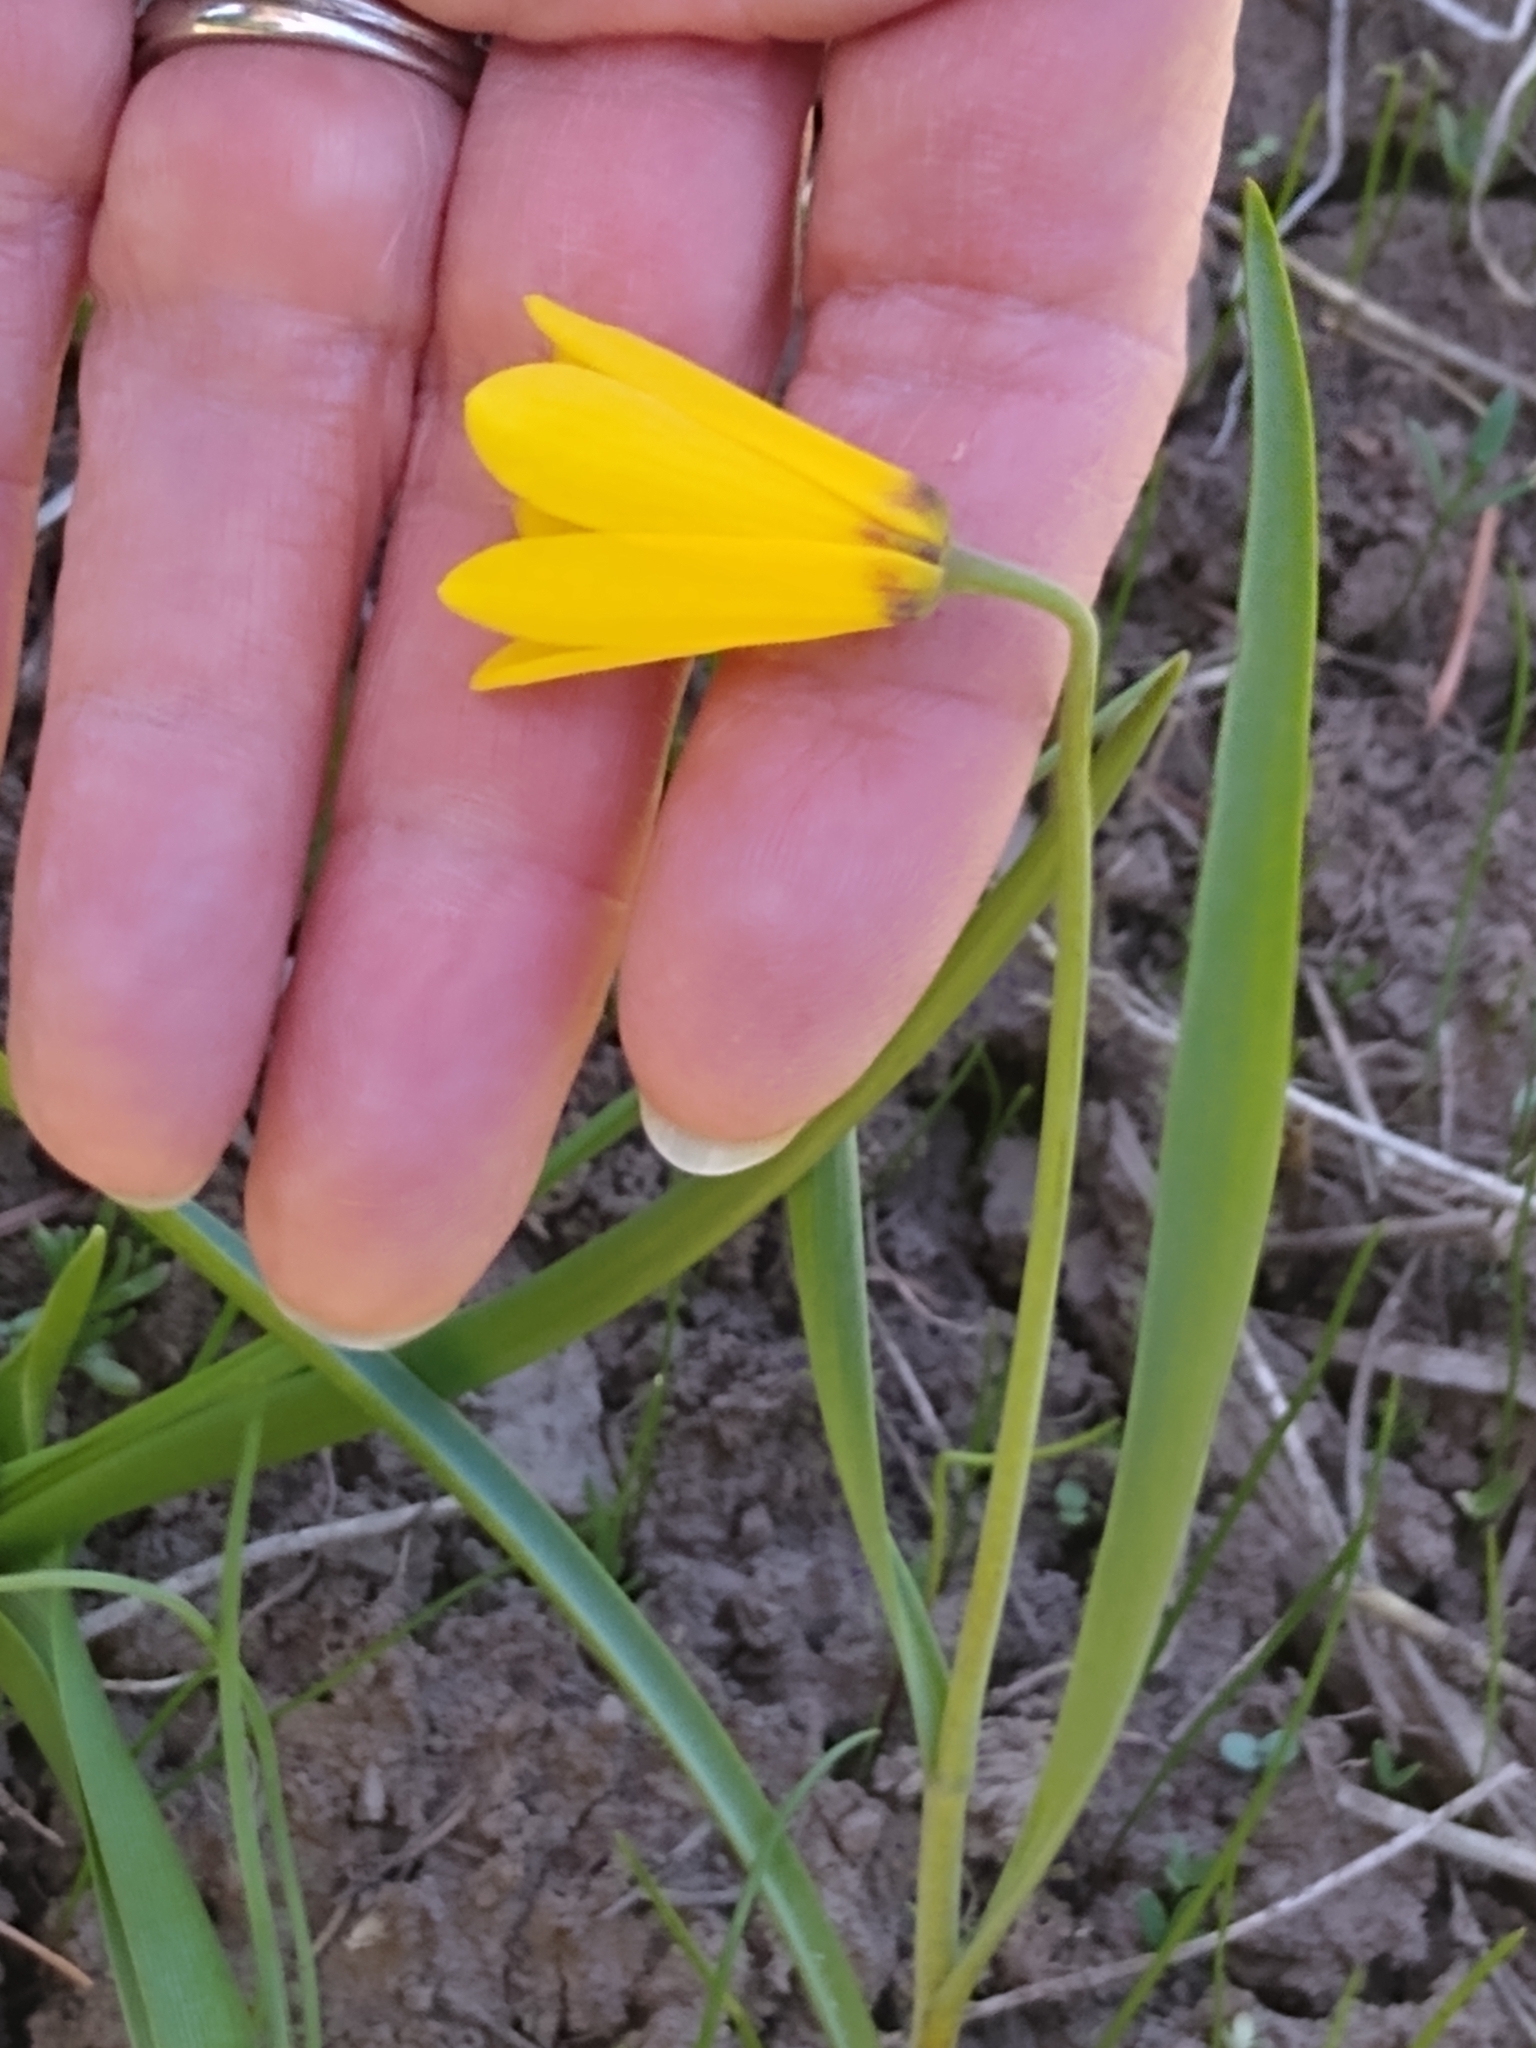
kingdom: Plantae
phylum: Tracheophyta
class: Liliopsida
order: Liliales
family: Liliaceae
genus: Fritillaria
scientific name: Fritillaria pudica
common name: Yellow fritillary
